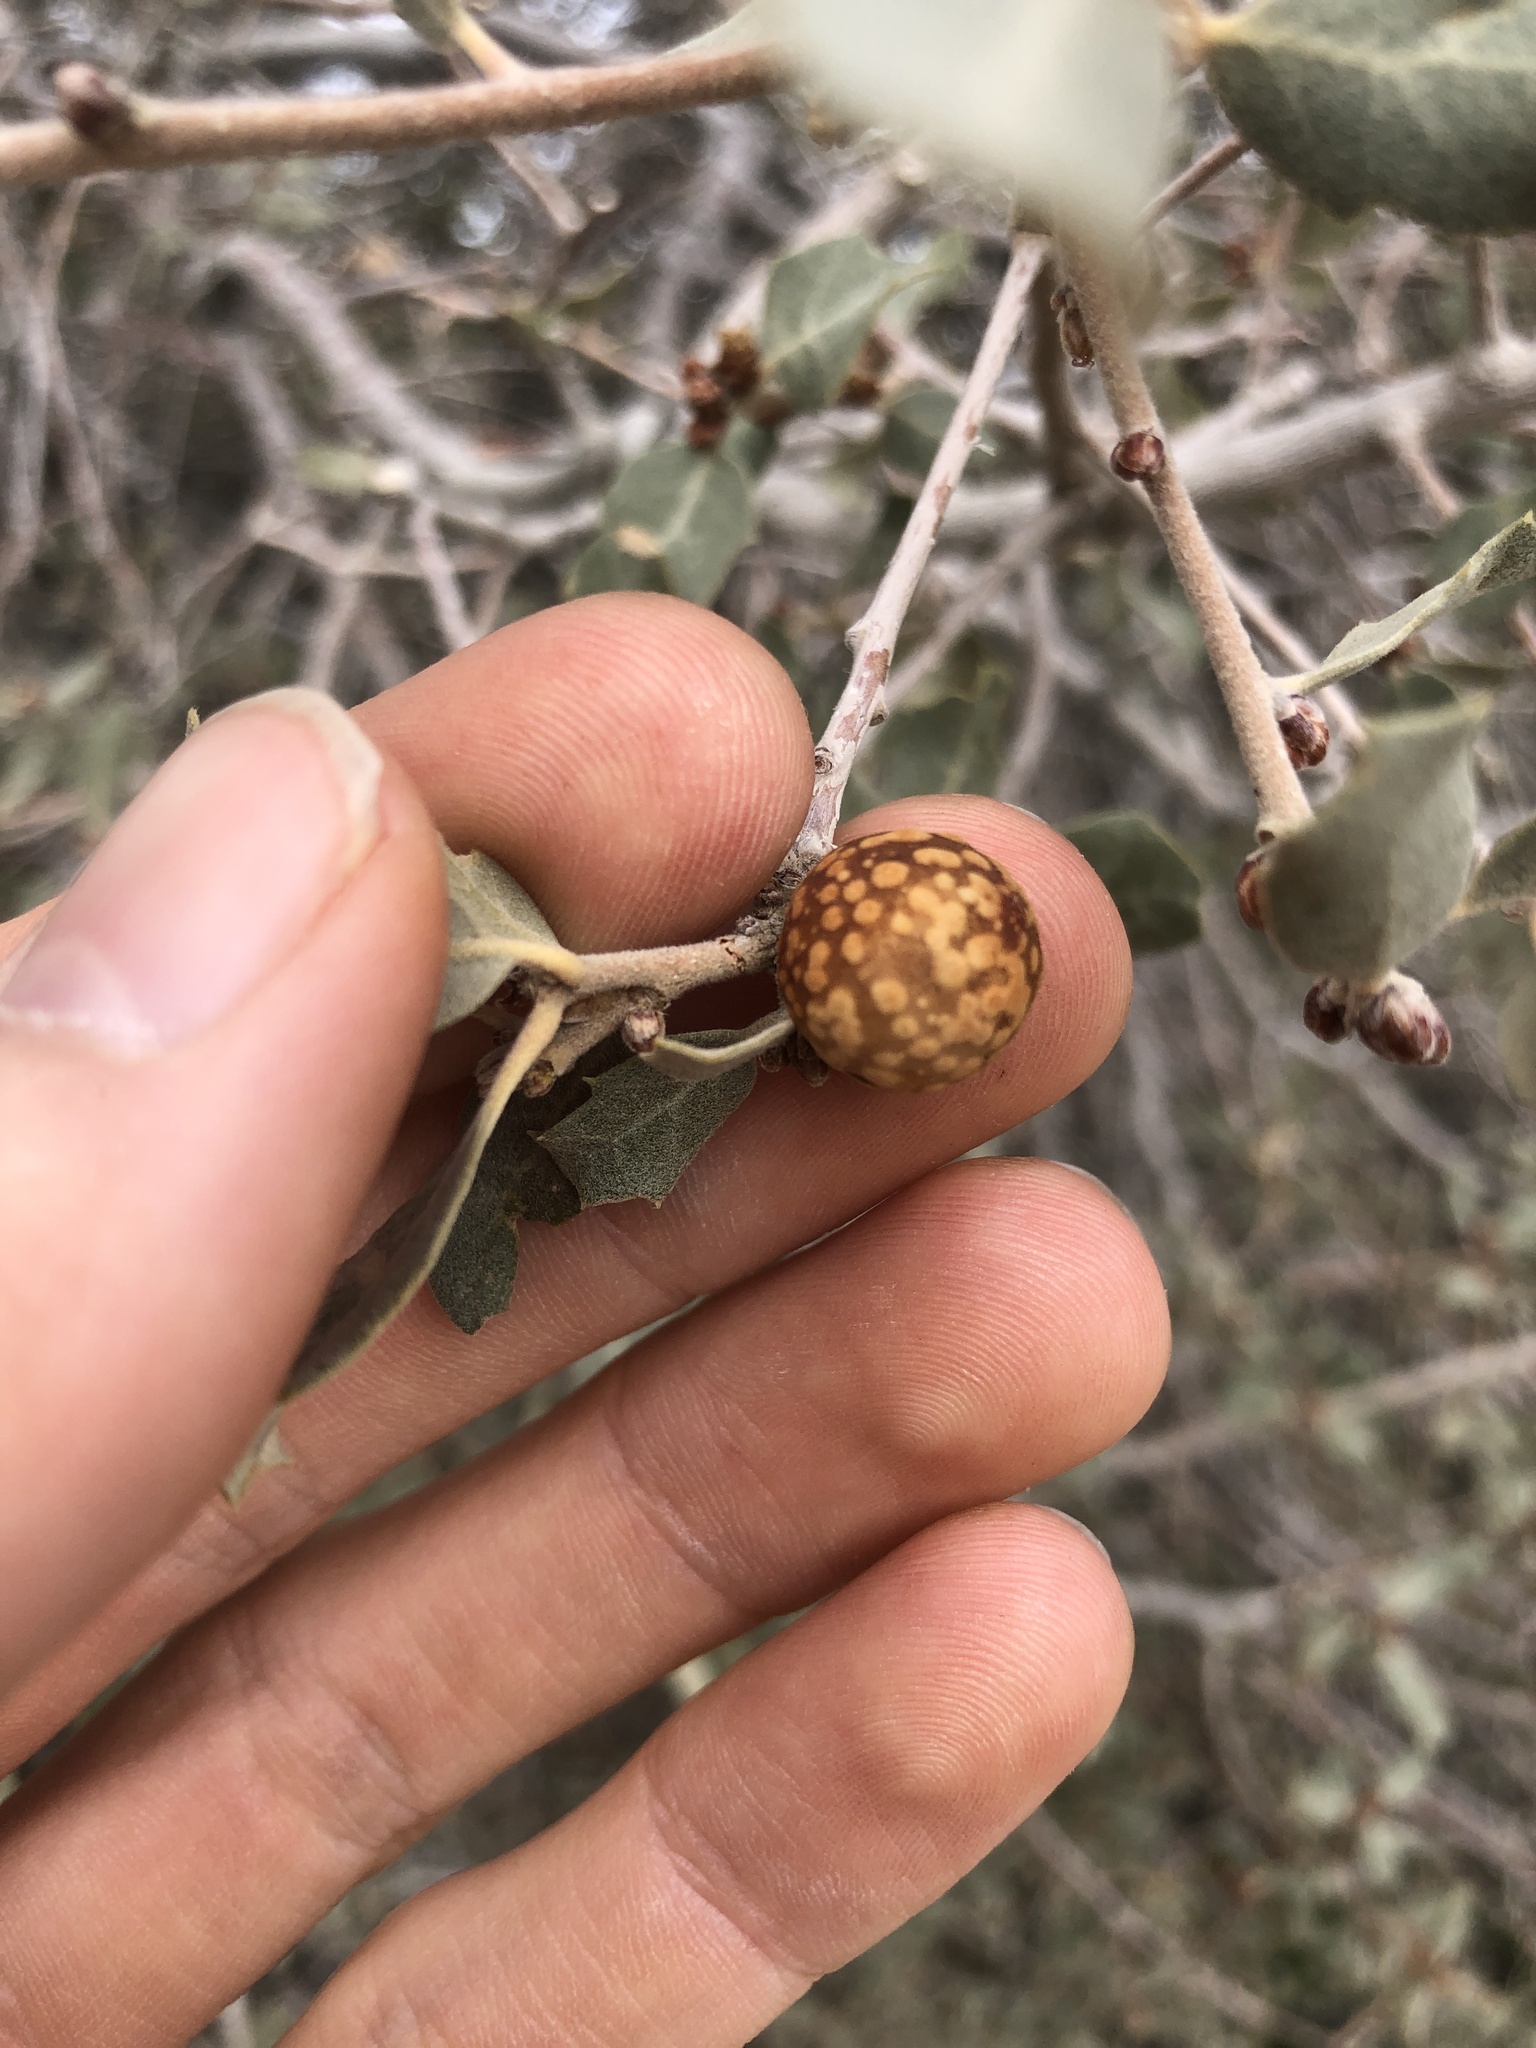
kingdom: Animalia
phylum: Arthropoda
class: Insecta
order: Hymenoptera
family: Cynipidae
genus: Burnettweldia
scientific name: Burnettweldia
